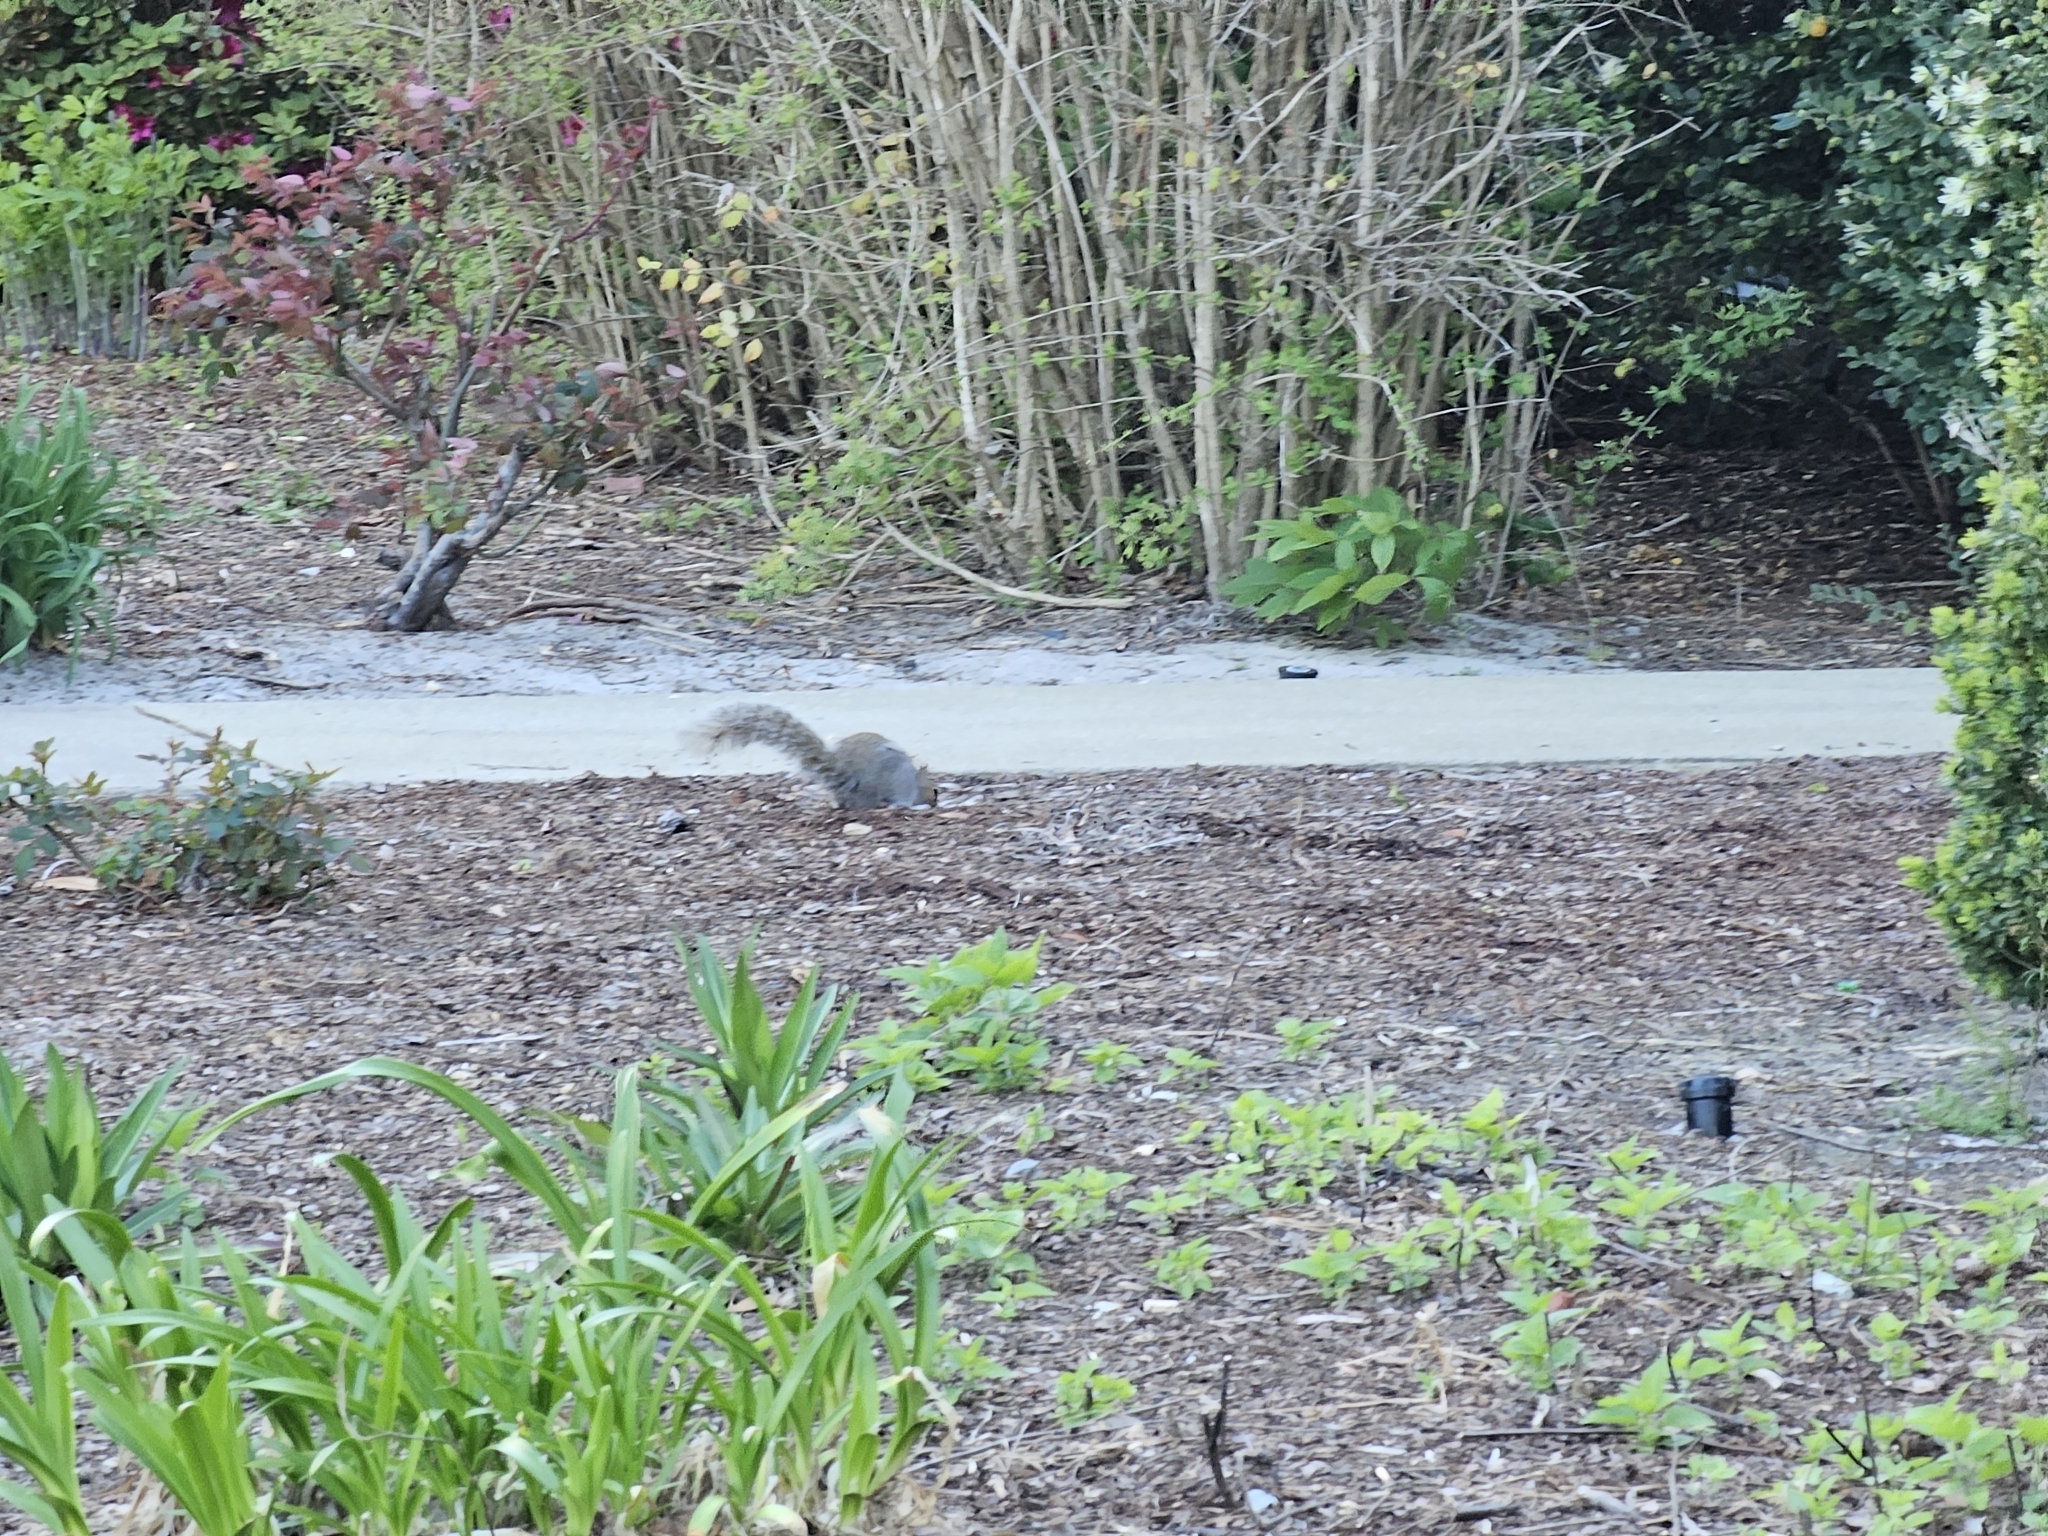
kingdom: Animalia
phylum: Chordata
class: Mammalia
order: Rodentia
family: Sciuridae
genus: Sciurus
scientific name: Sciurus carolinensis
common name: Eastern gray squirrel
